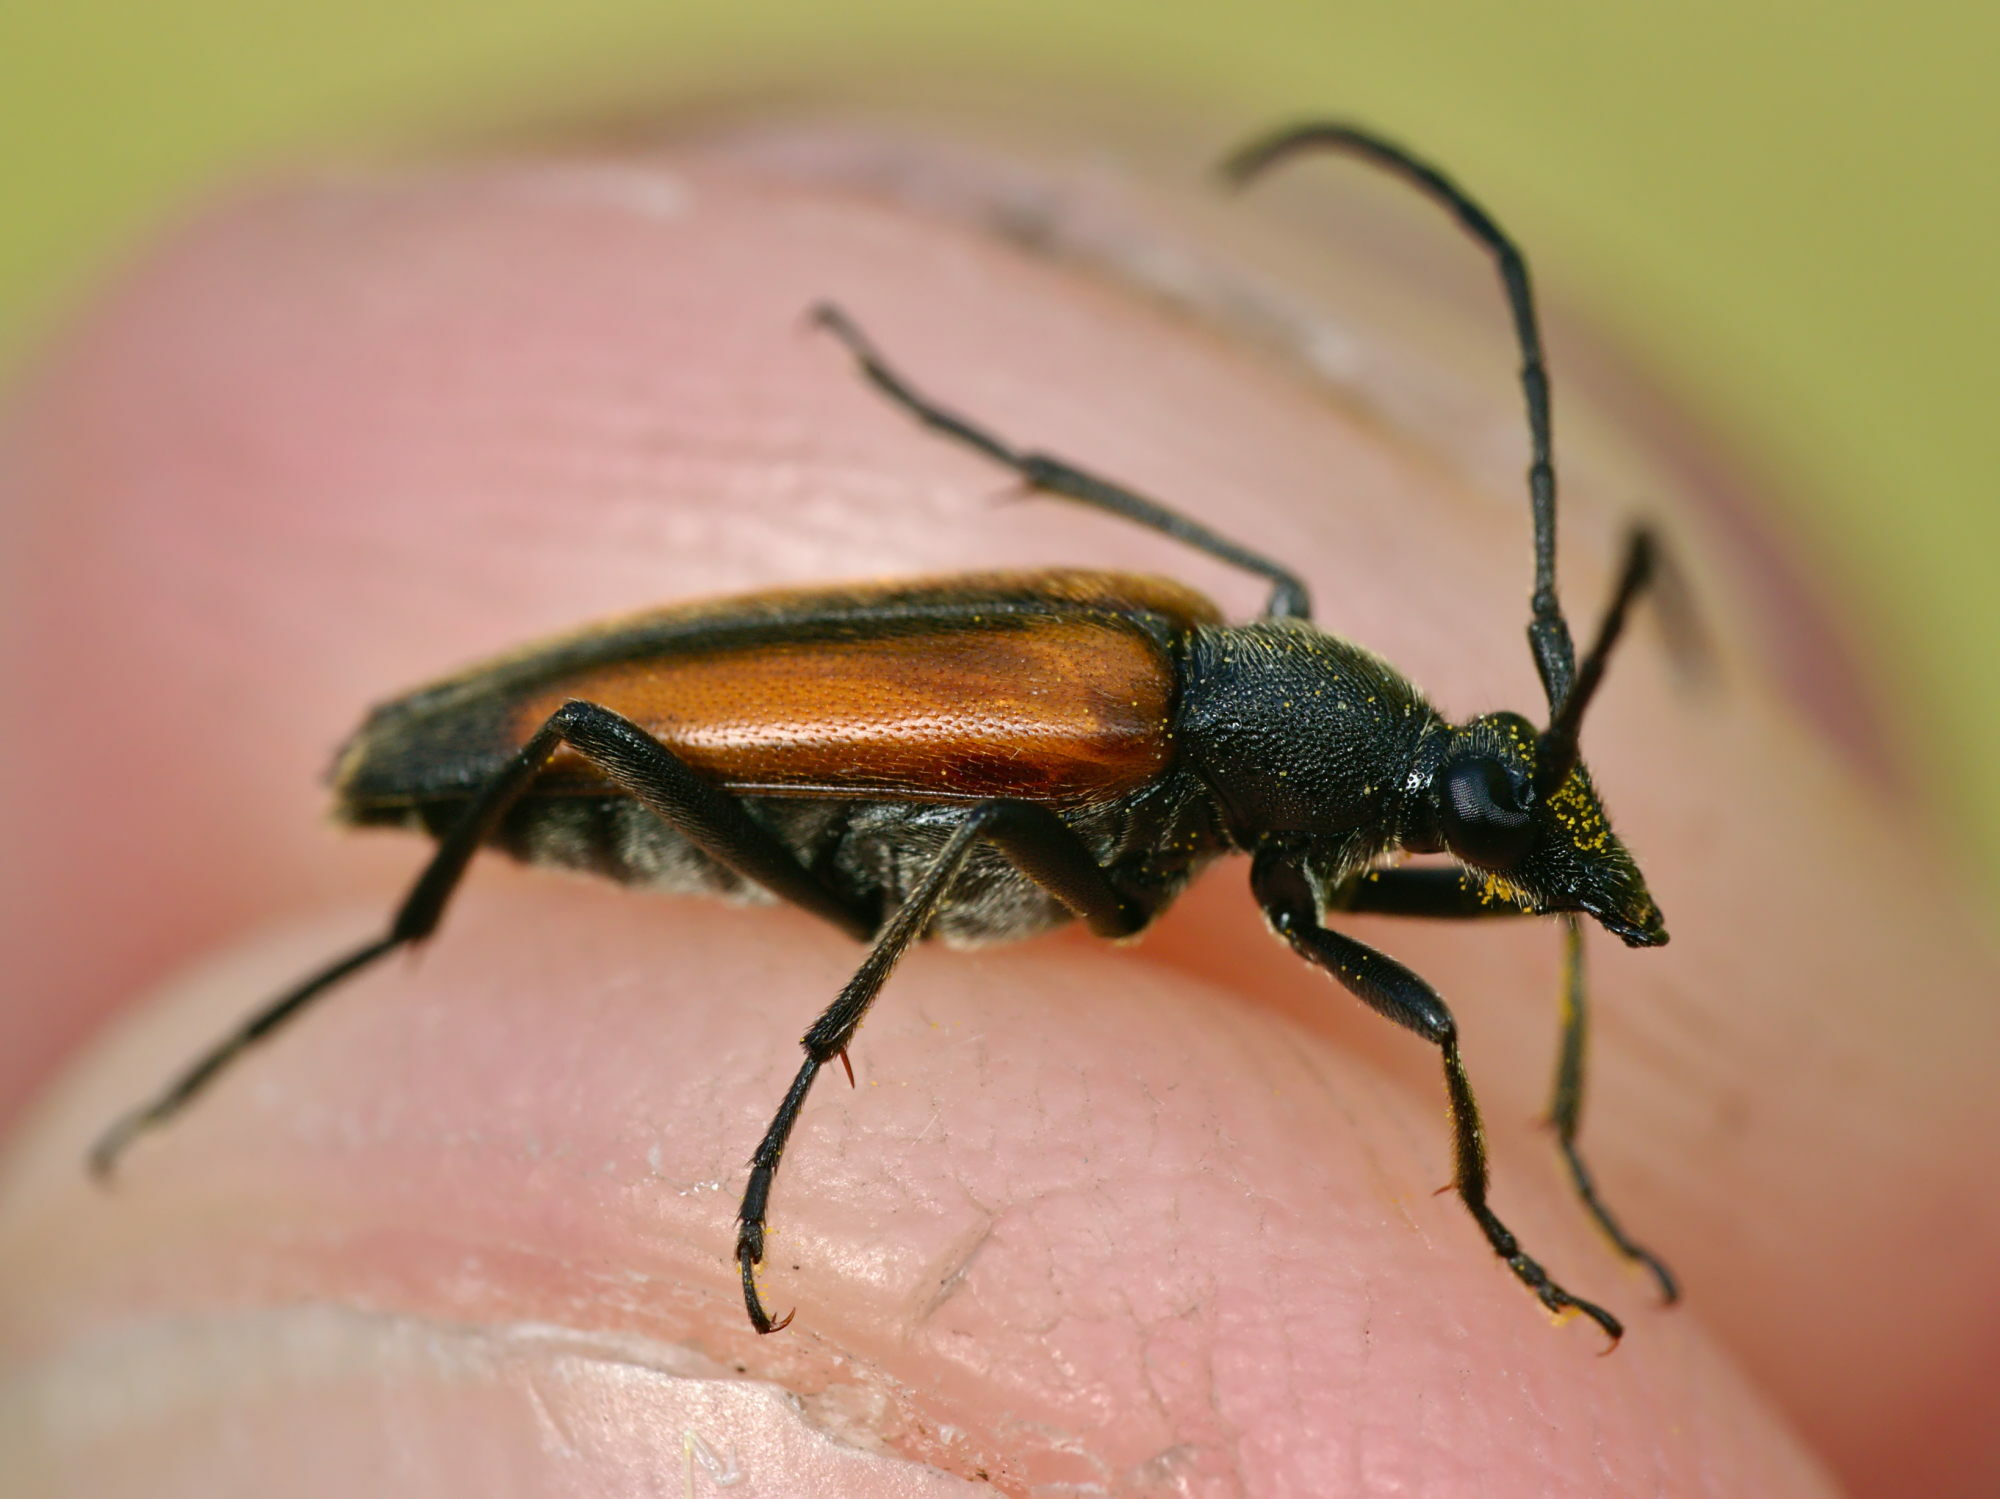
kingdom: Animalia
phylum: Arthropoda
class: Insecta
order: Coleoptera
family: Cerambycidae
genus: Stenurella
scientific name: Stenurella melanura
